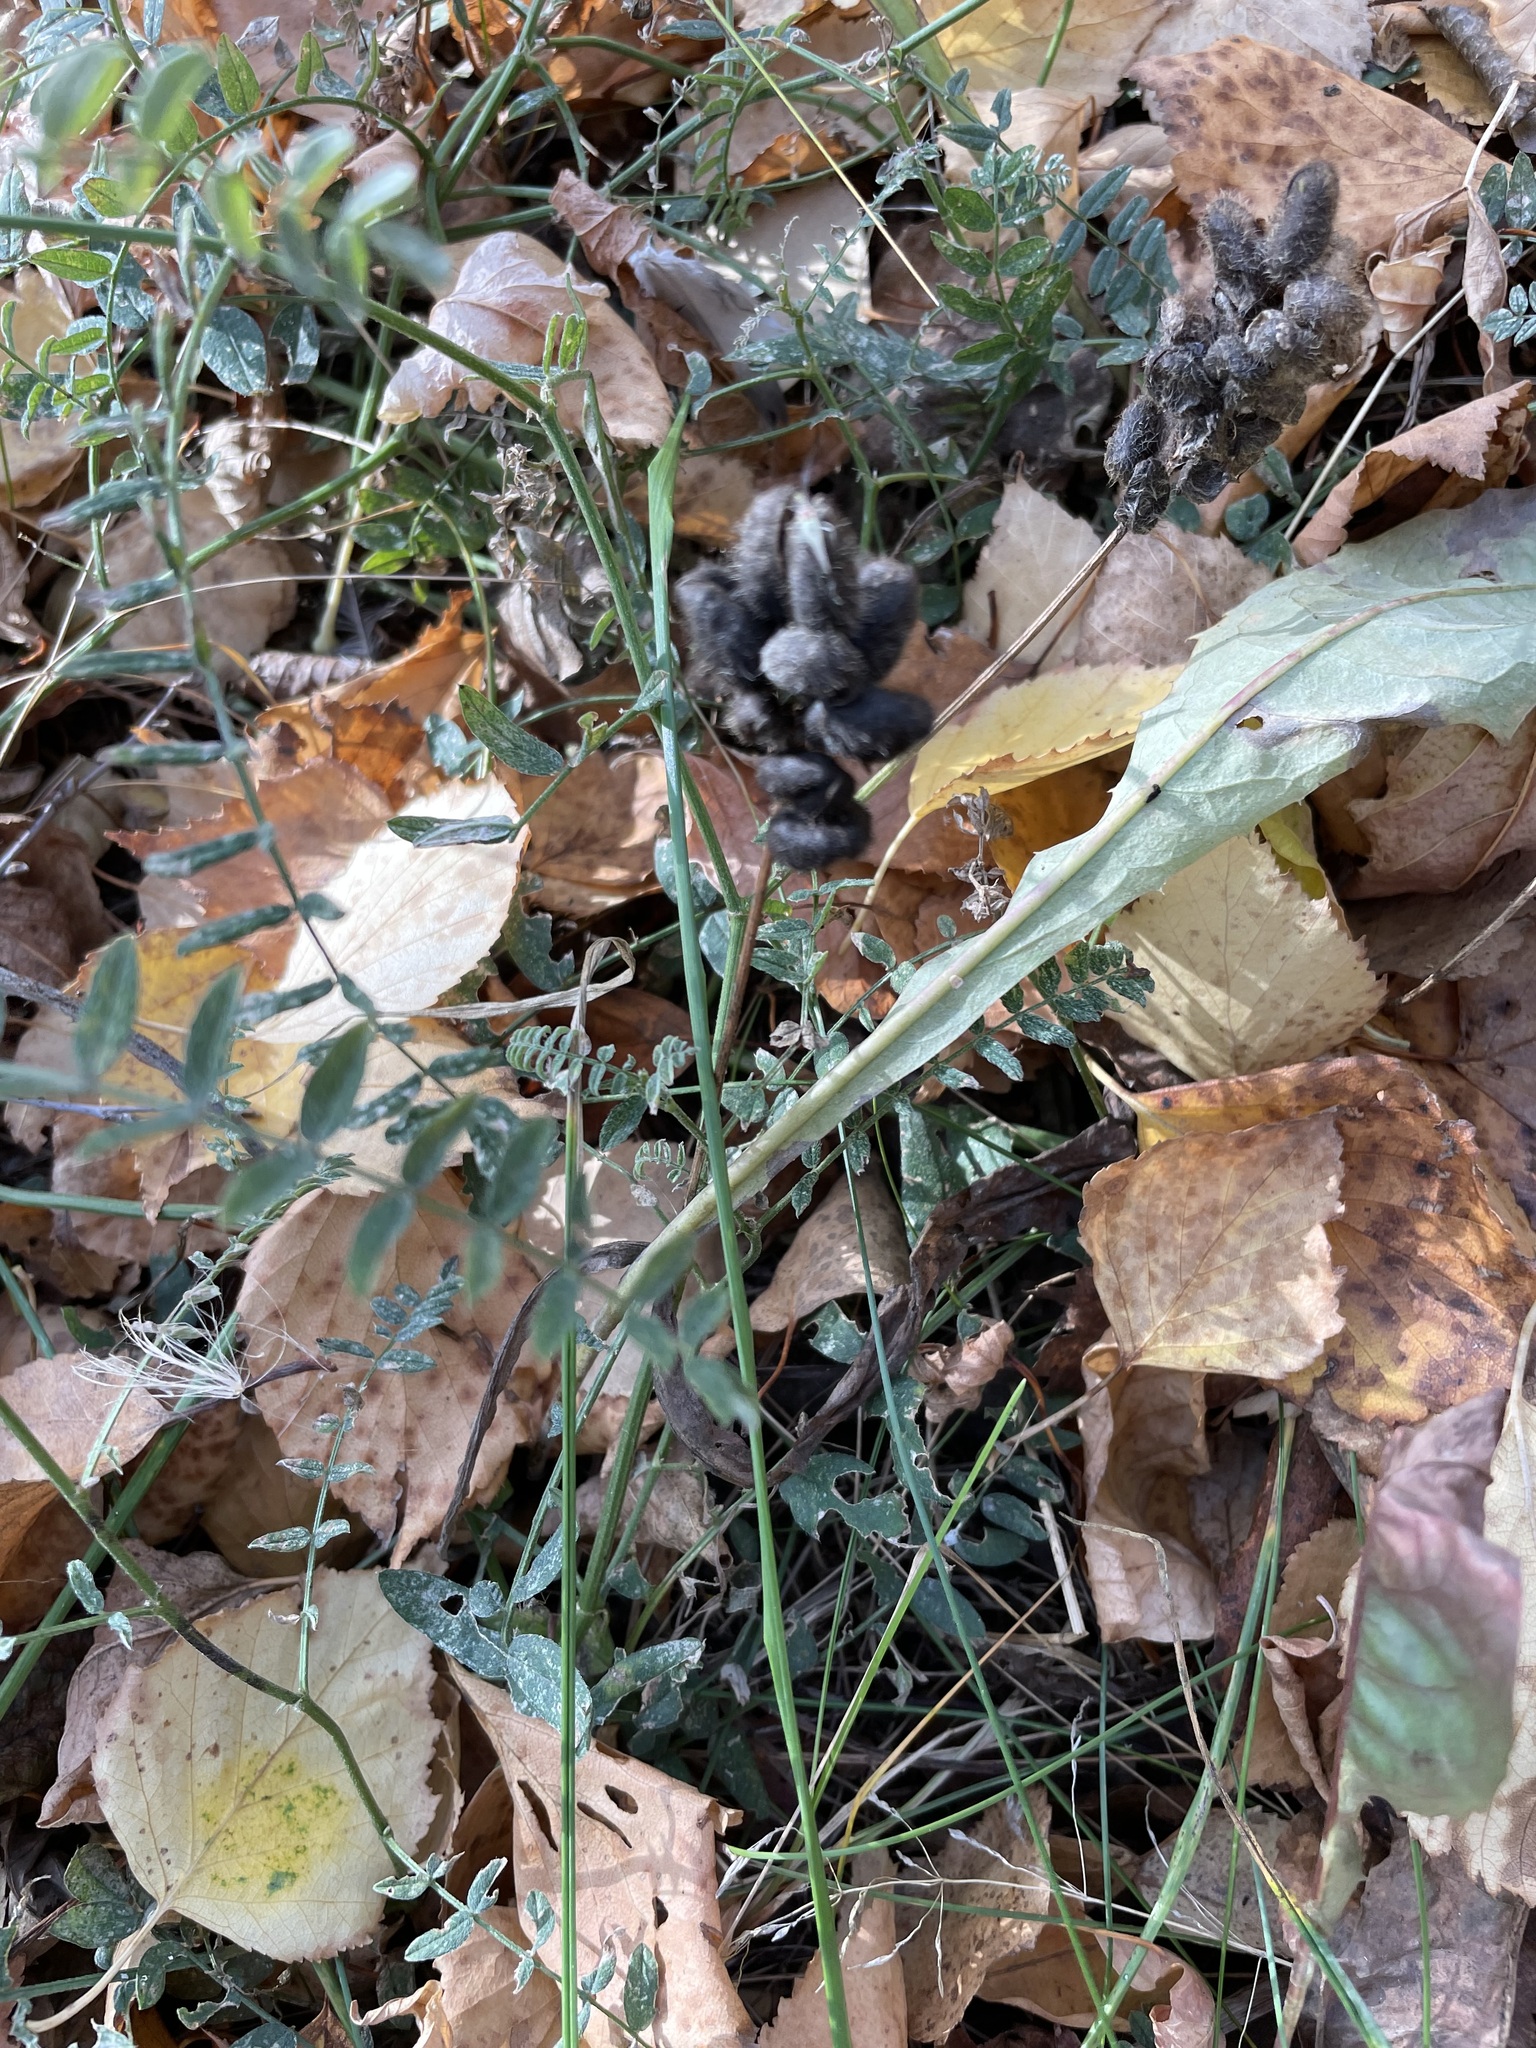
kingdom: Plantae
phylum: Tracheophyta
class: Magnoliopsida
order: Fabales
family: Fabaceae
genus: Astragalus
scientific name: Astragalus cicer
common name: Chick-pea milk-vetch
